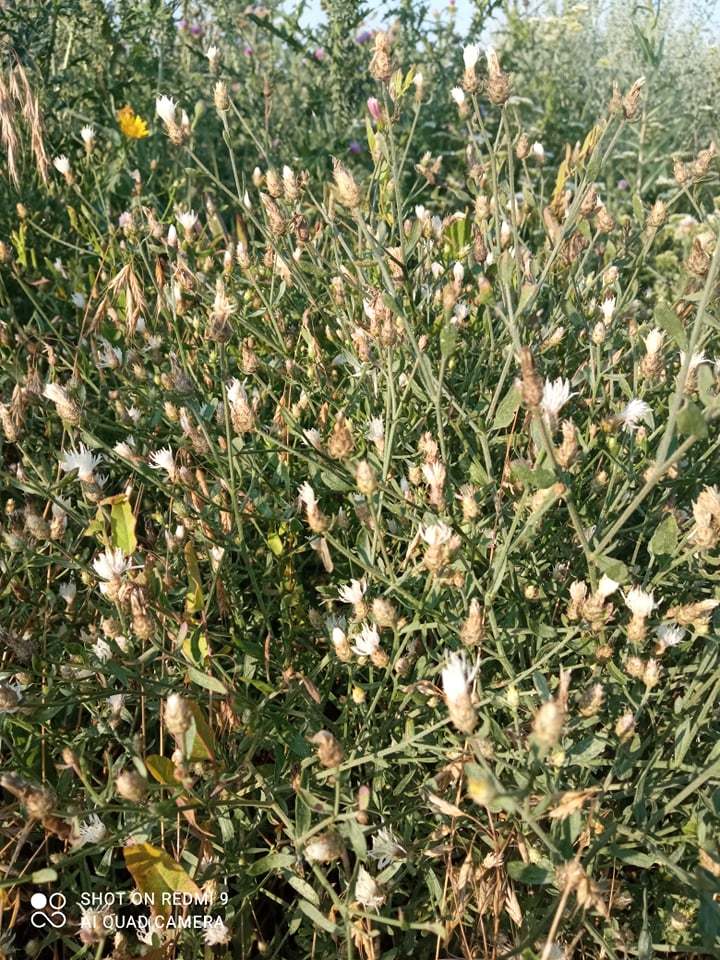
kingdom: Plantae
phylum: Tracheophyta
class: Magnoliopsida
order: Asterales
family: Asteraceae
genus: Centaurea
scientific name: Centaurea diffusa
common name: Diffuse knapweed
